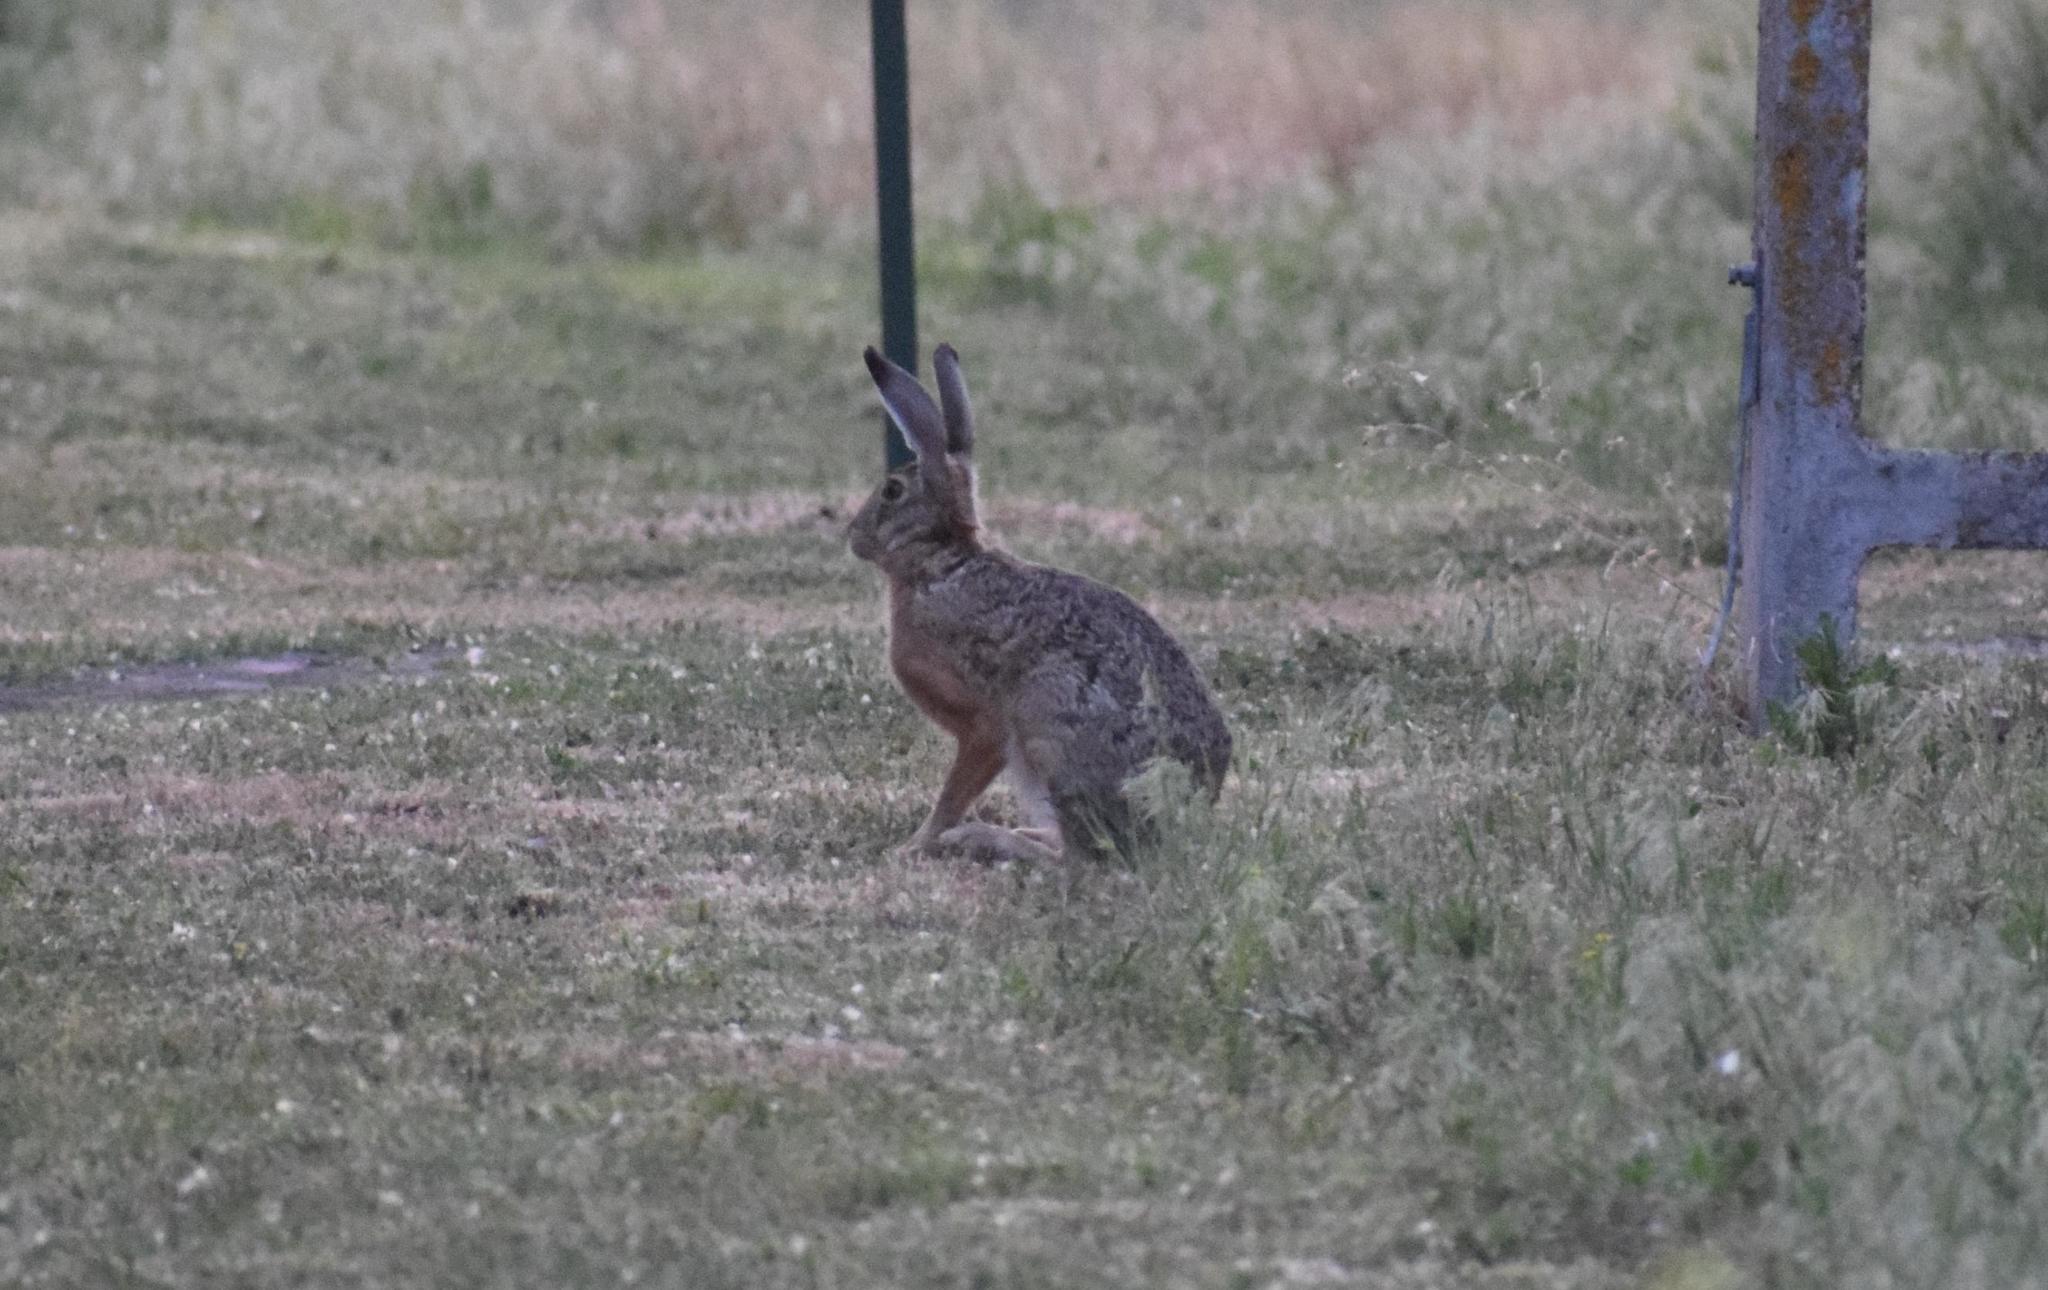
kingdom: Animalia
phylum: Chordata
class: Mammalia
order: Lagomorpha
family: Leporidae
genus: Lepus
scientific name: Lepus europaeus
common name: European hare
